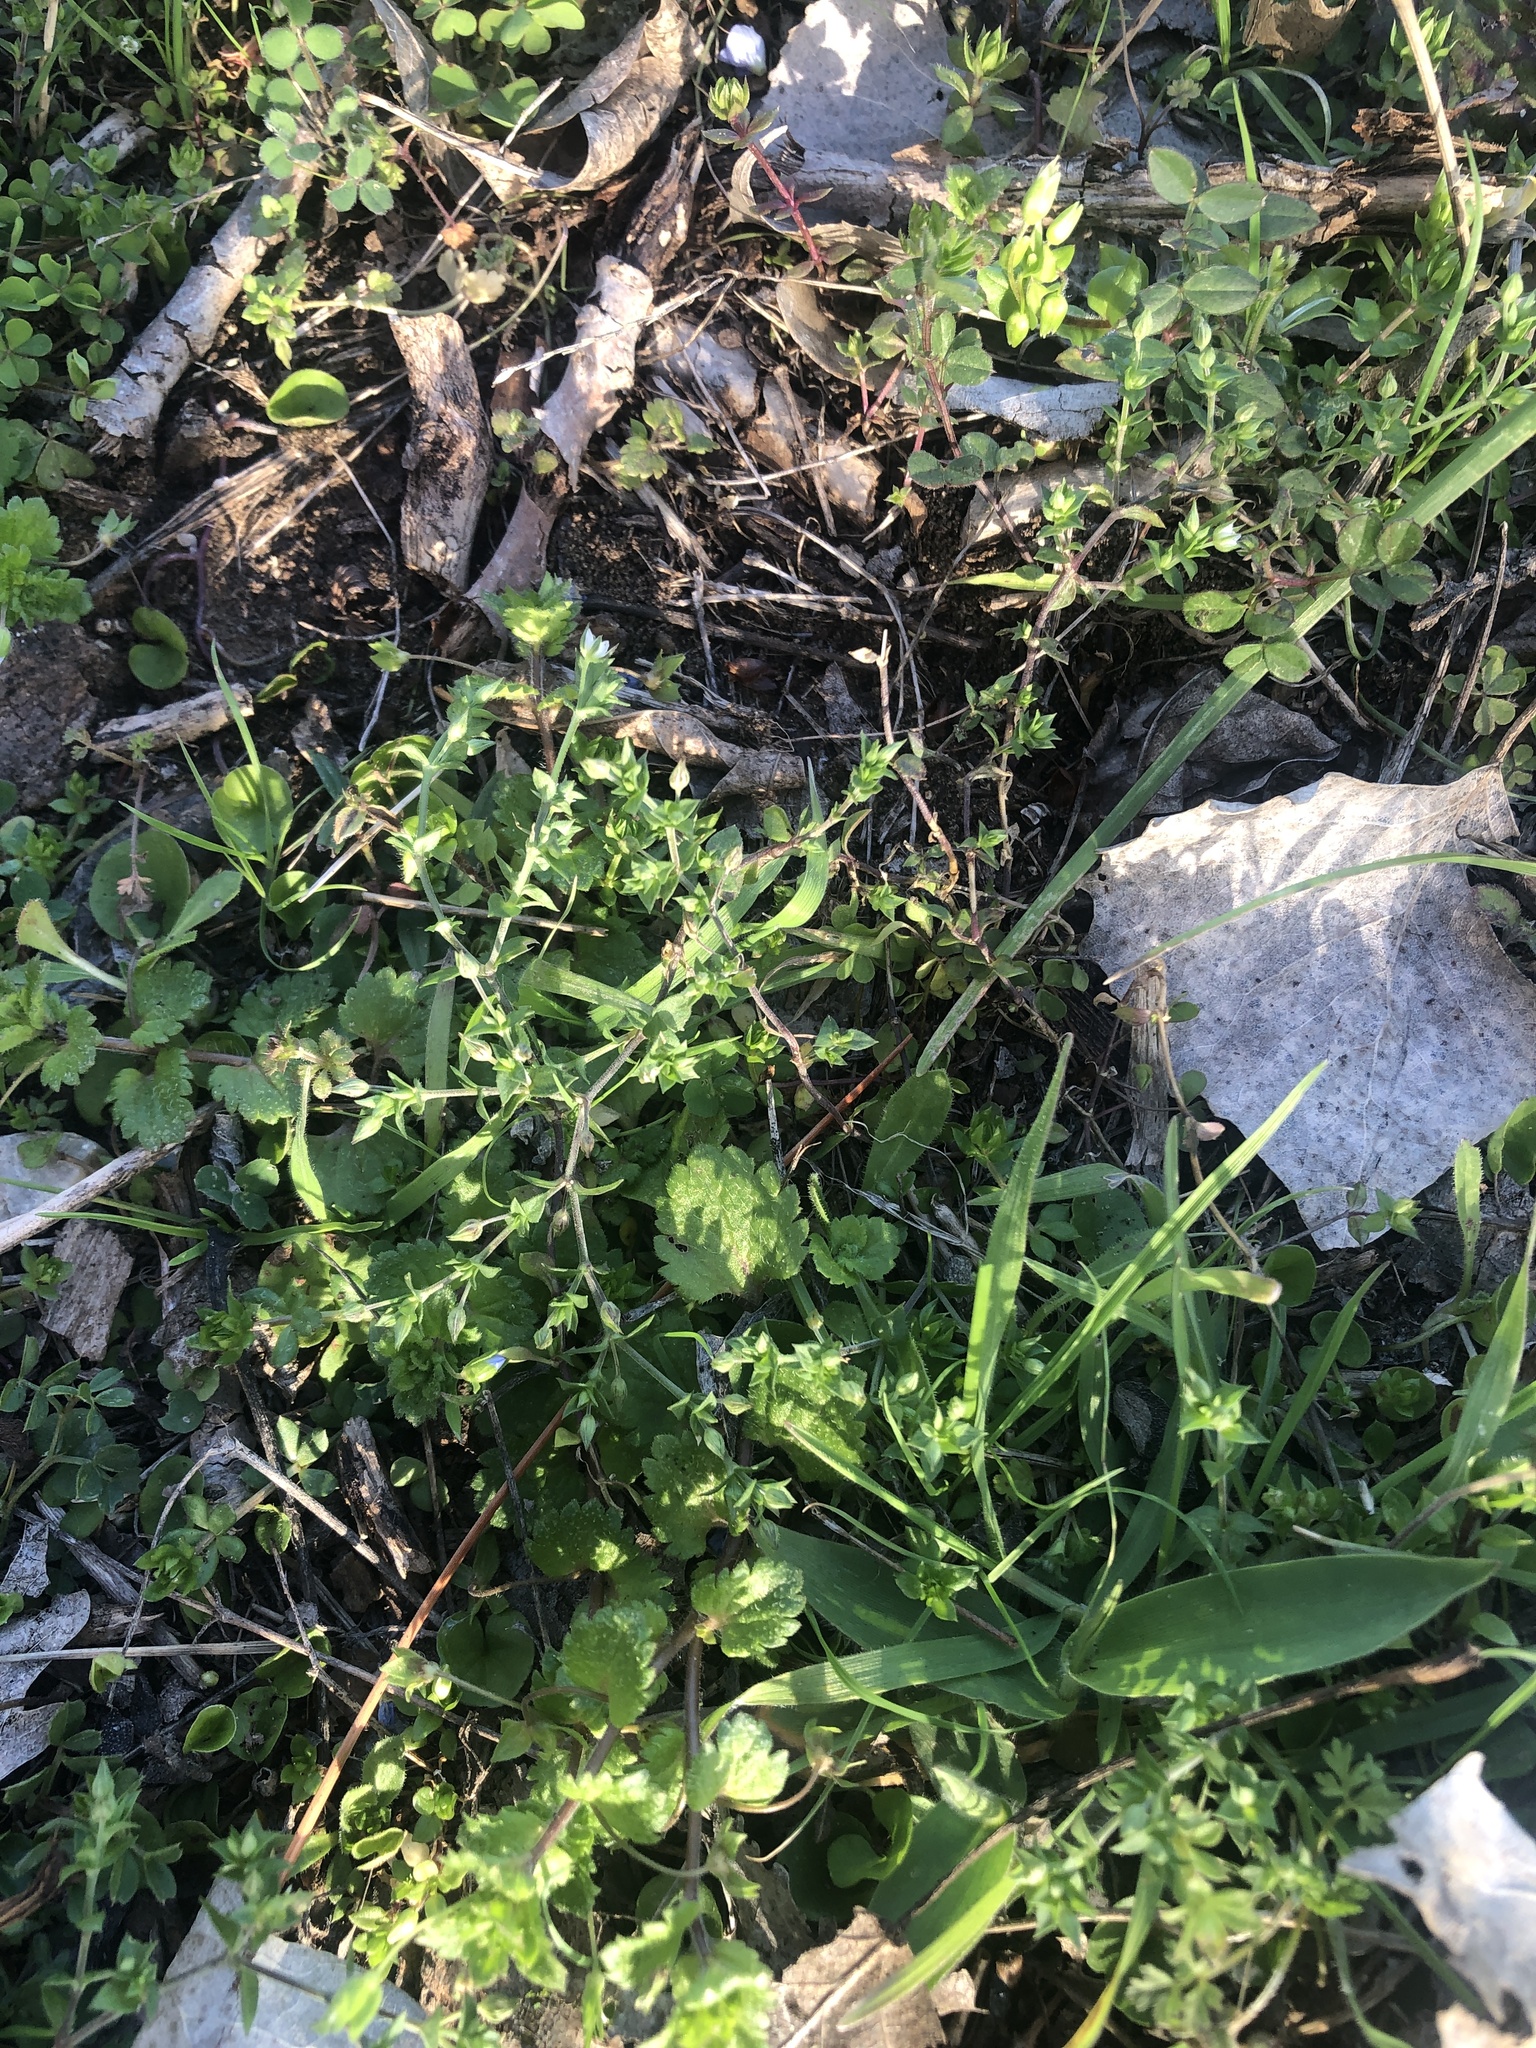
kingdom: Plantae
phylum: Tracheophyta
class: Magnoliopsida
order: Caryophyllales
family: Caryophyllaceae
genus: Arenaria
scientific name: Arenaria serpyllifolia
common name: Thyme-leaved sandwort
